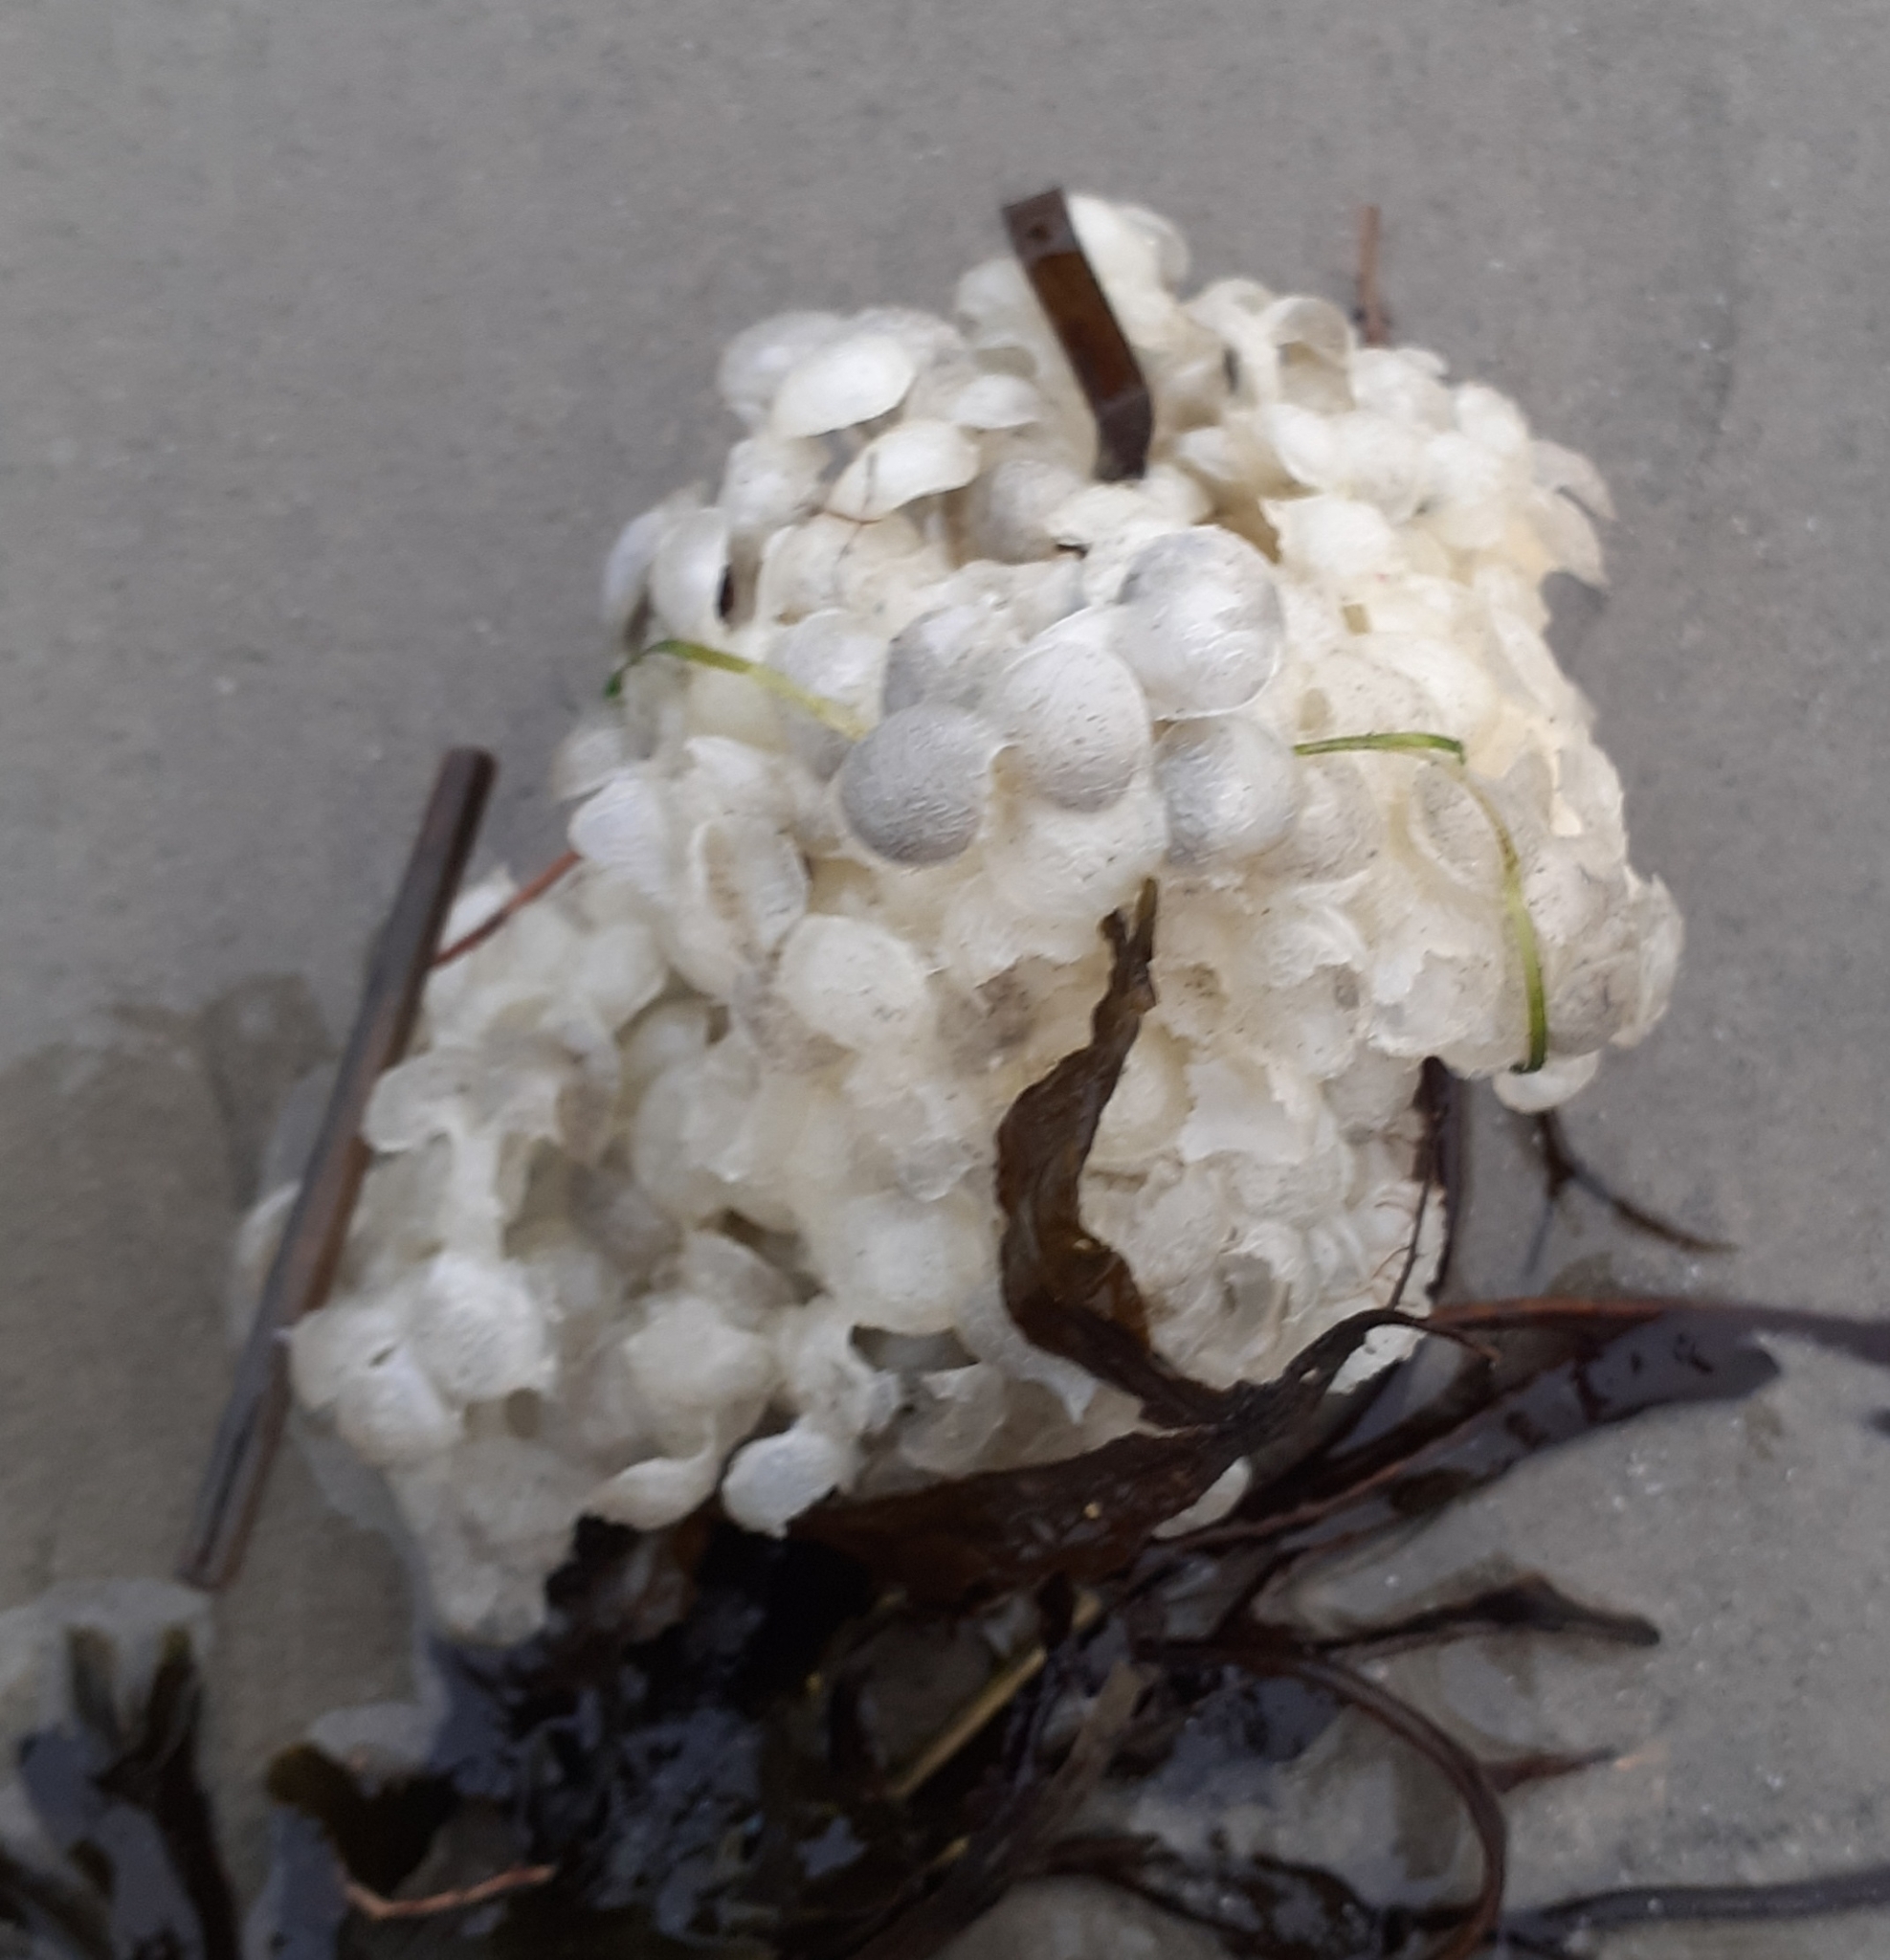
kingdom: Animalia
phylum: Mollusca
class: Gastropoda
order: Neogastropoda
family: Buccinidae
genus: Buccinum
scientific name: Buccinum undatum
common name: Common whelk
